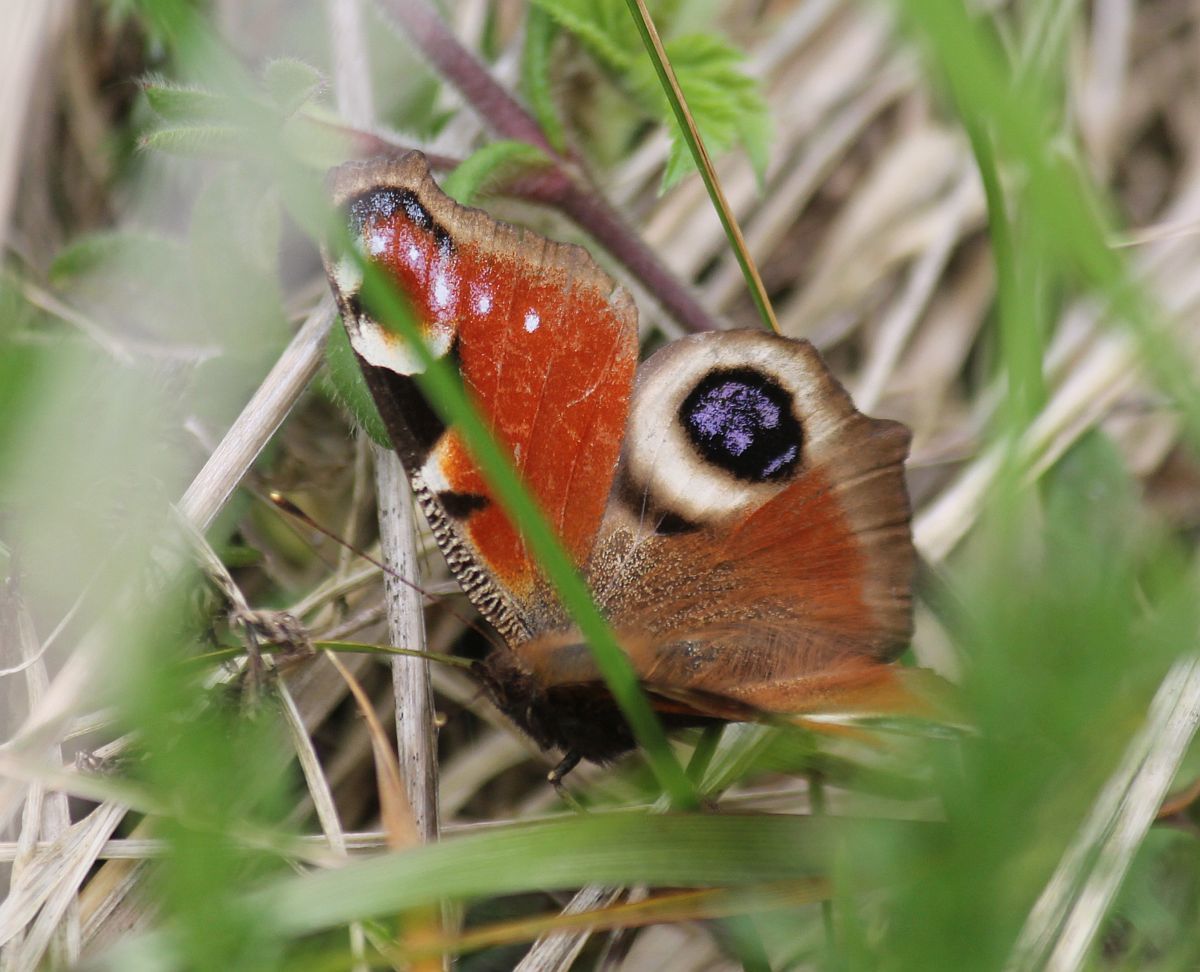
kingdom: Animalia
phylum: Arthropoda
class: Insecta
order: Lepidoptera
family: Nymphalidae
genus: Aglais
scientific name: Aglais io
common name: Peacock
